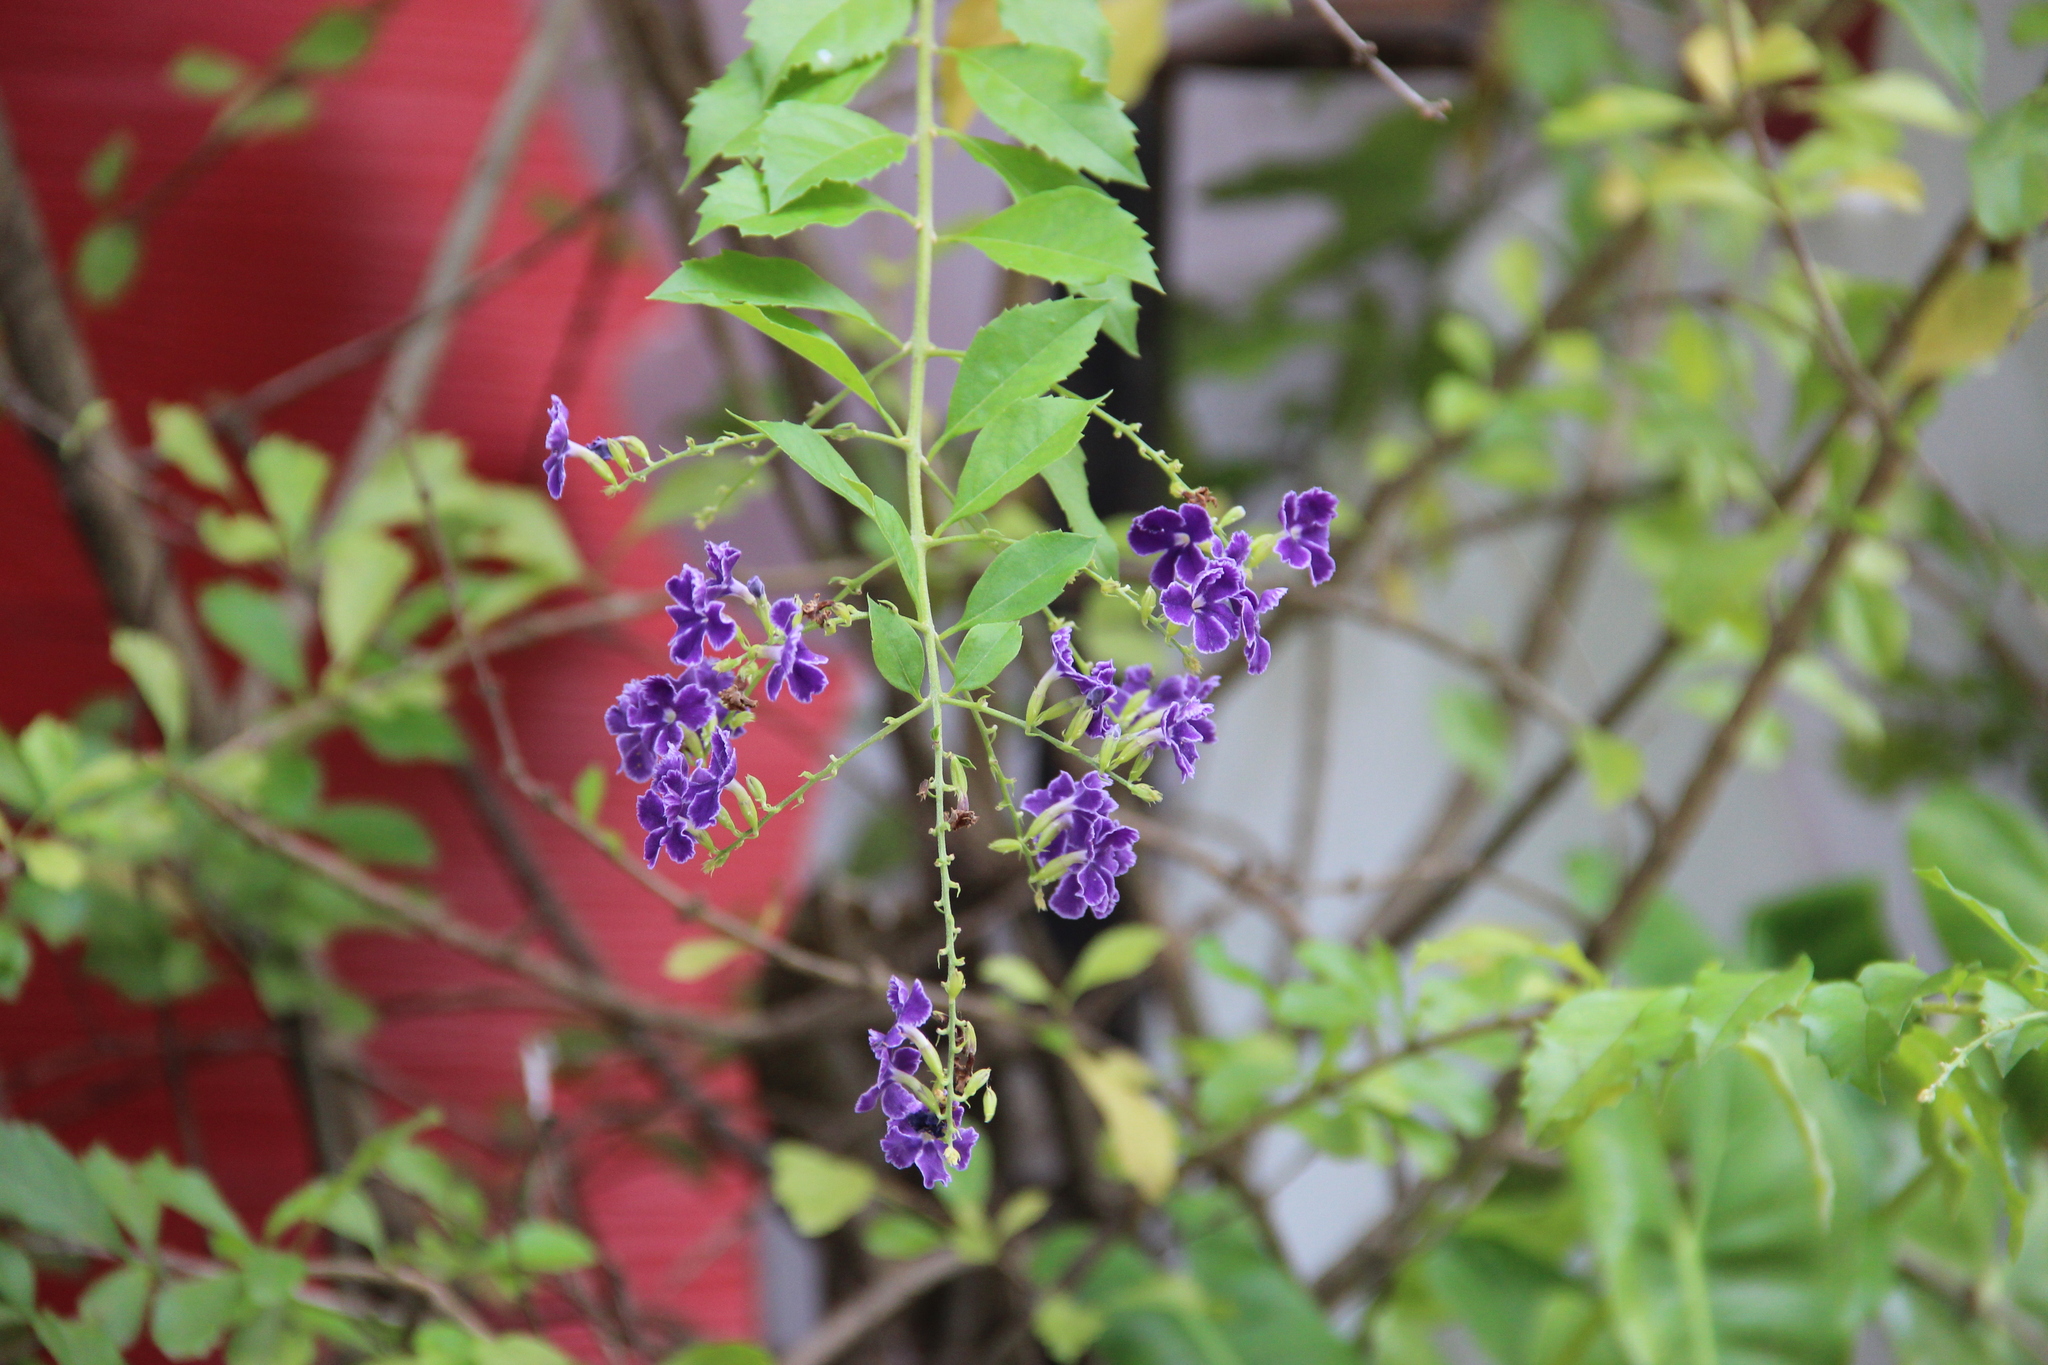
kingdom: Plantae
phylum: Tracheophyta
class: Magnoliopsida
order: Lamiales
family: Verbenaceae
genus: Duranta
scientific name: Duranta erecta
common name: Golden dewdrops
